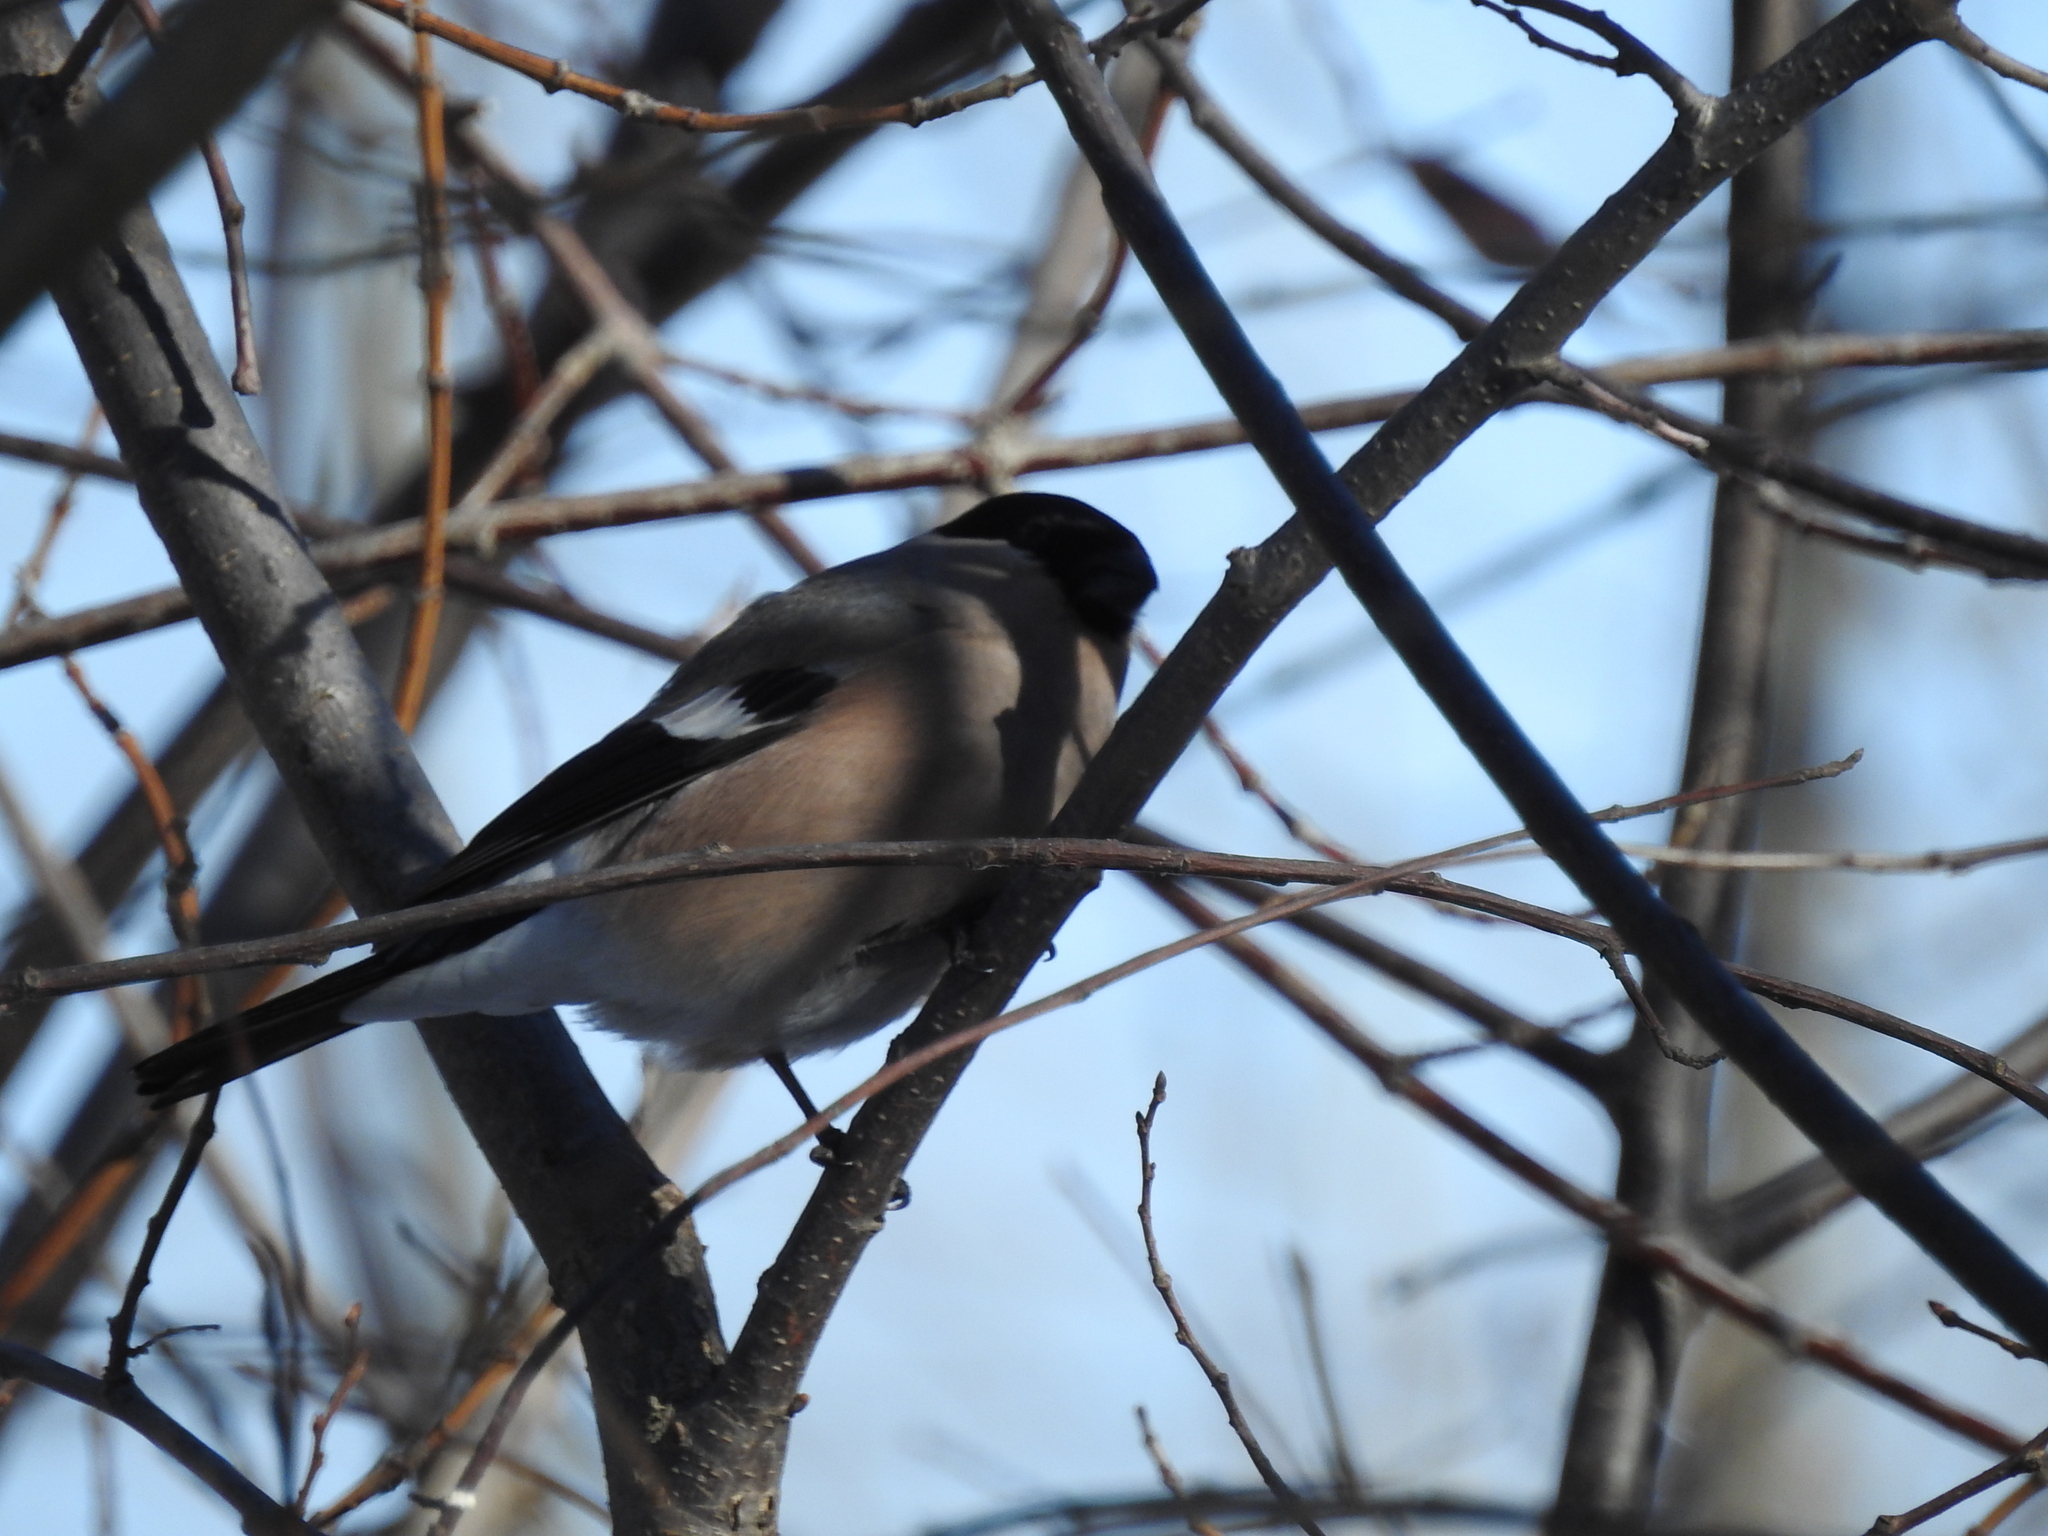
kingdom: Animalia
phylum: Chordata
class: Aves
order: Passeriformes
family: Fringillidae
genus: Pyrrhula
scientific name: Pyrrhula pyrrhula
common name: Eurasian bullfinch
